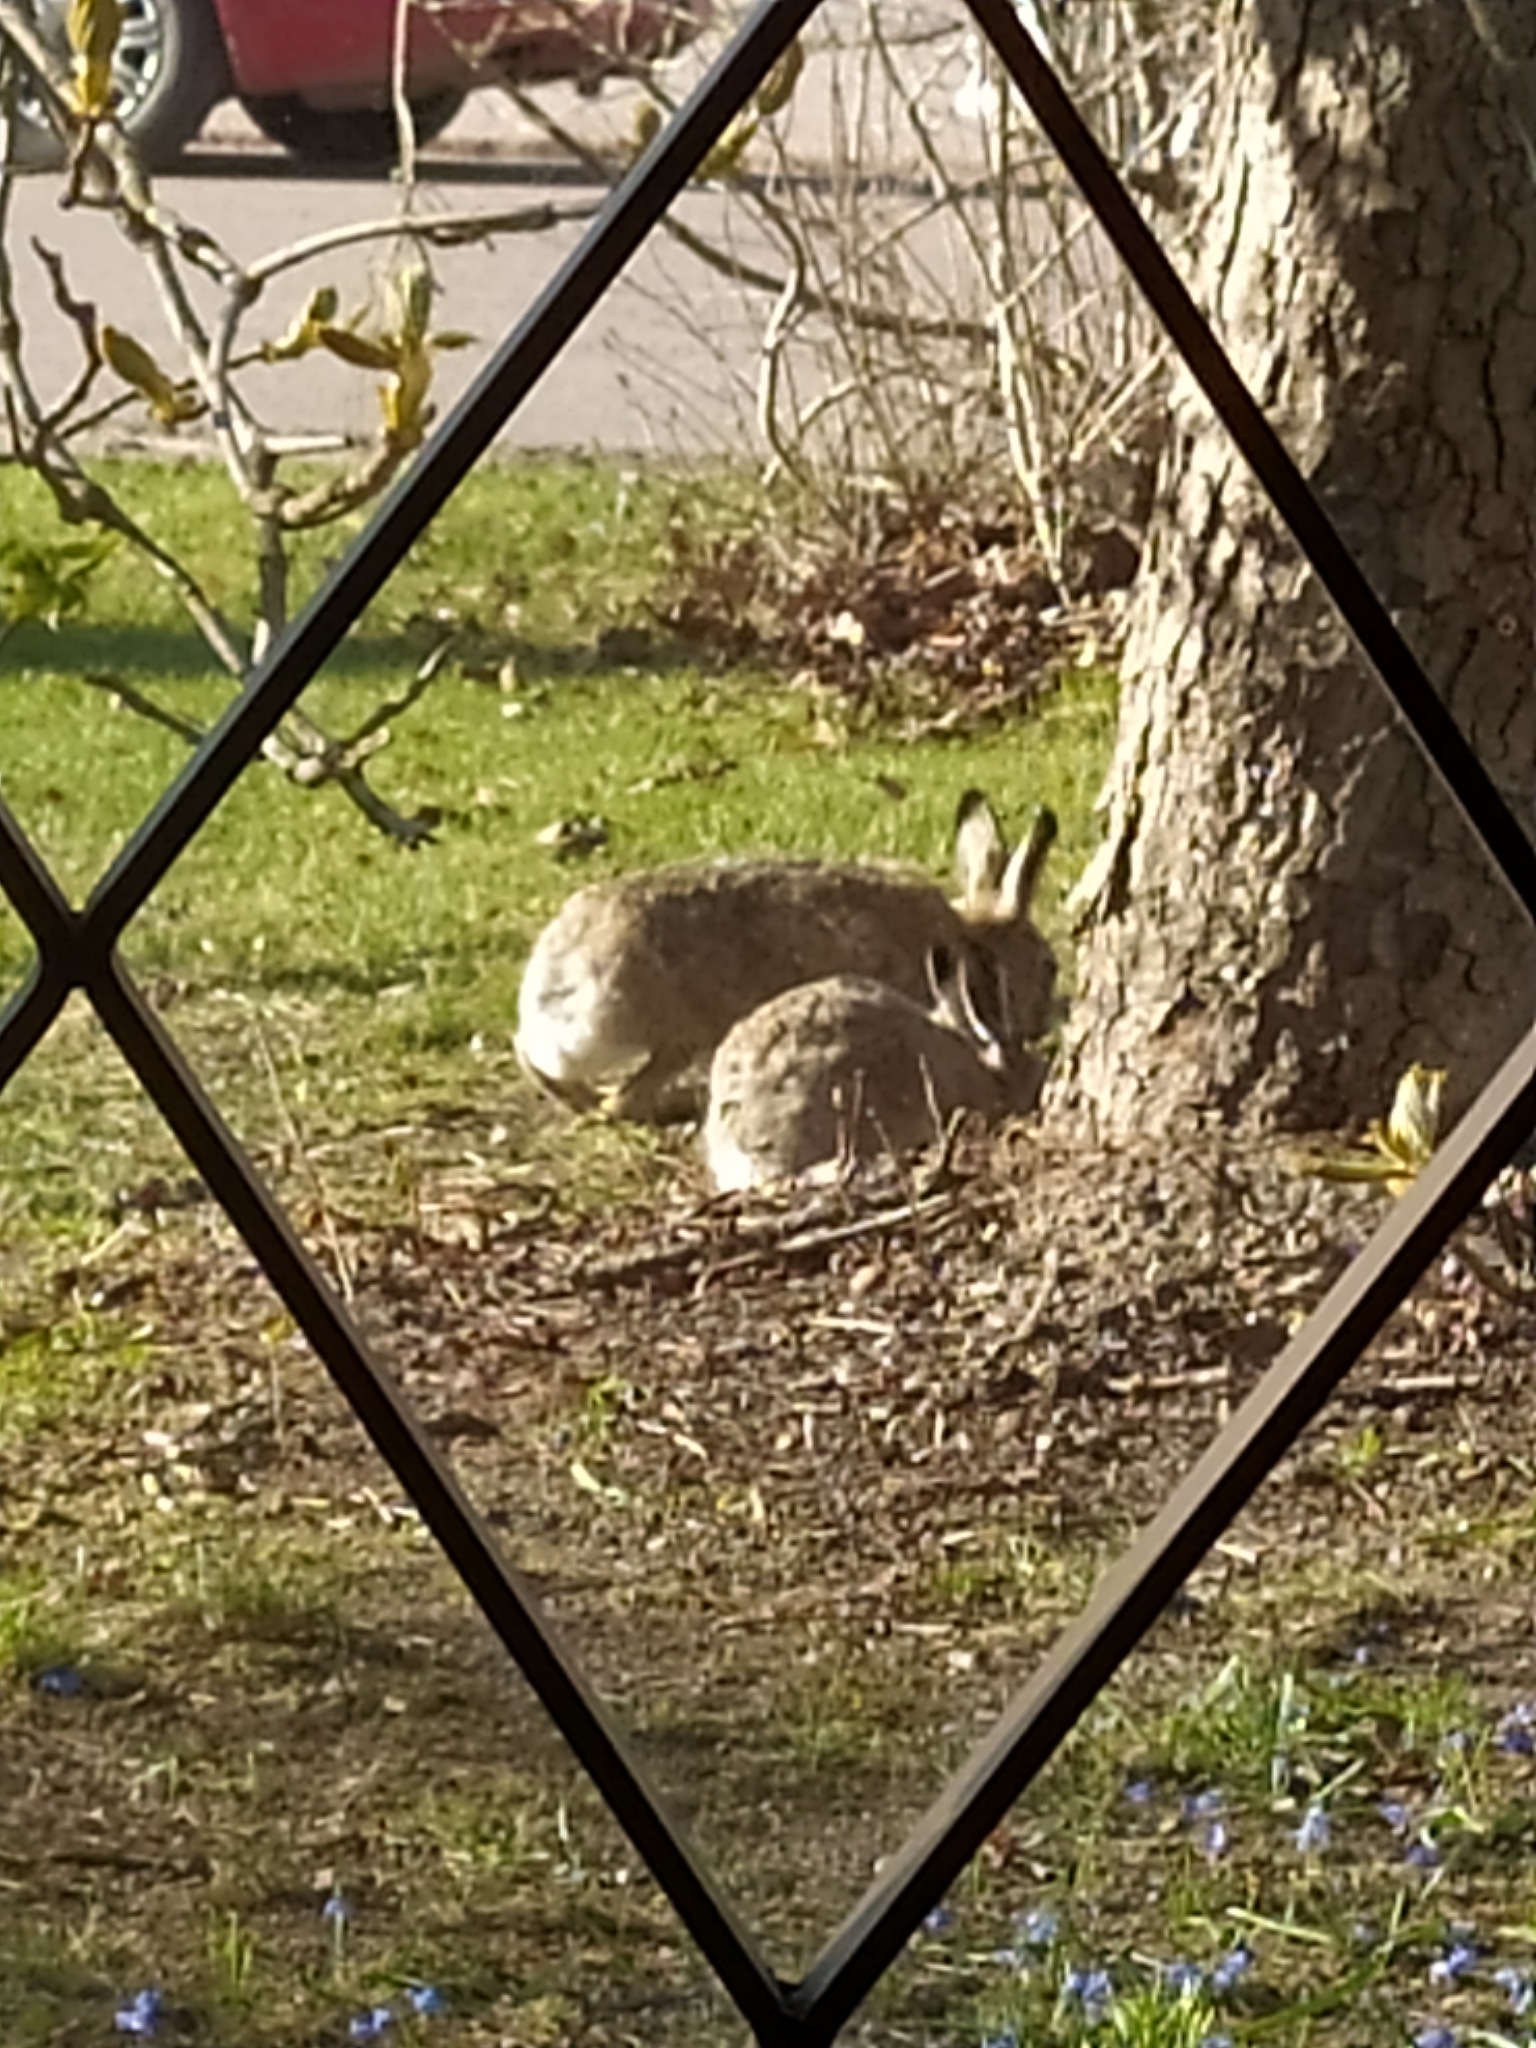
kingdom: Animalia
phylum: Chordata
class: Mammalia
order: Lagomorpha
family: Leporidae
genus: Lepus
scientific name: Lepus europaeus
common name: European hare
